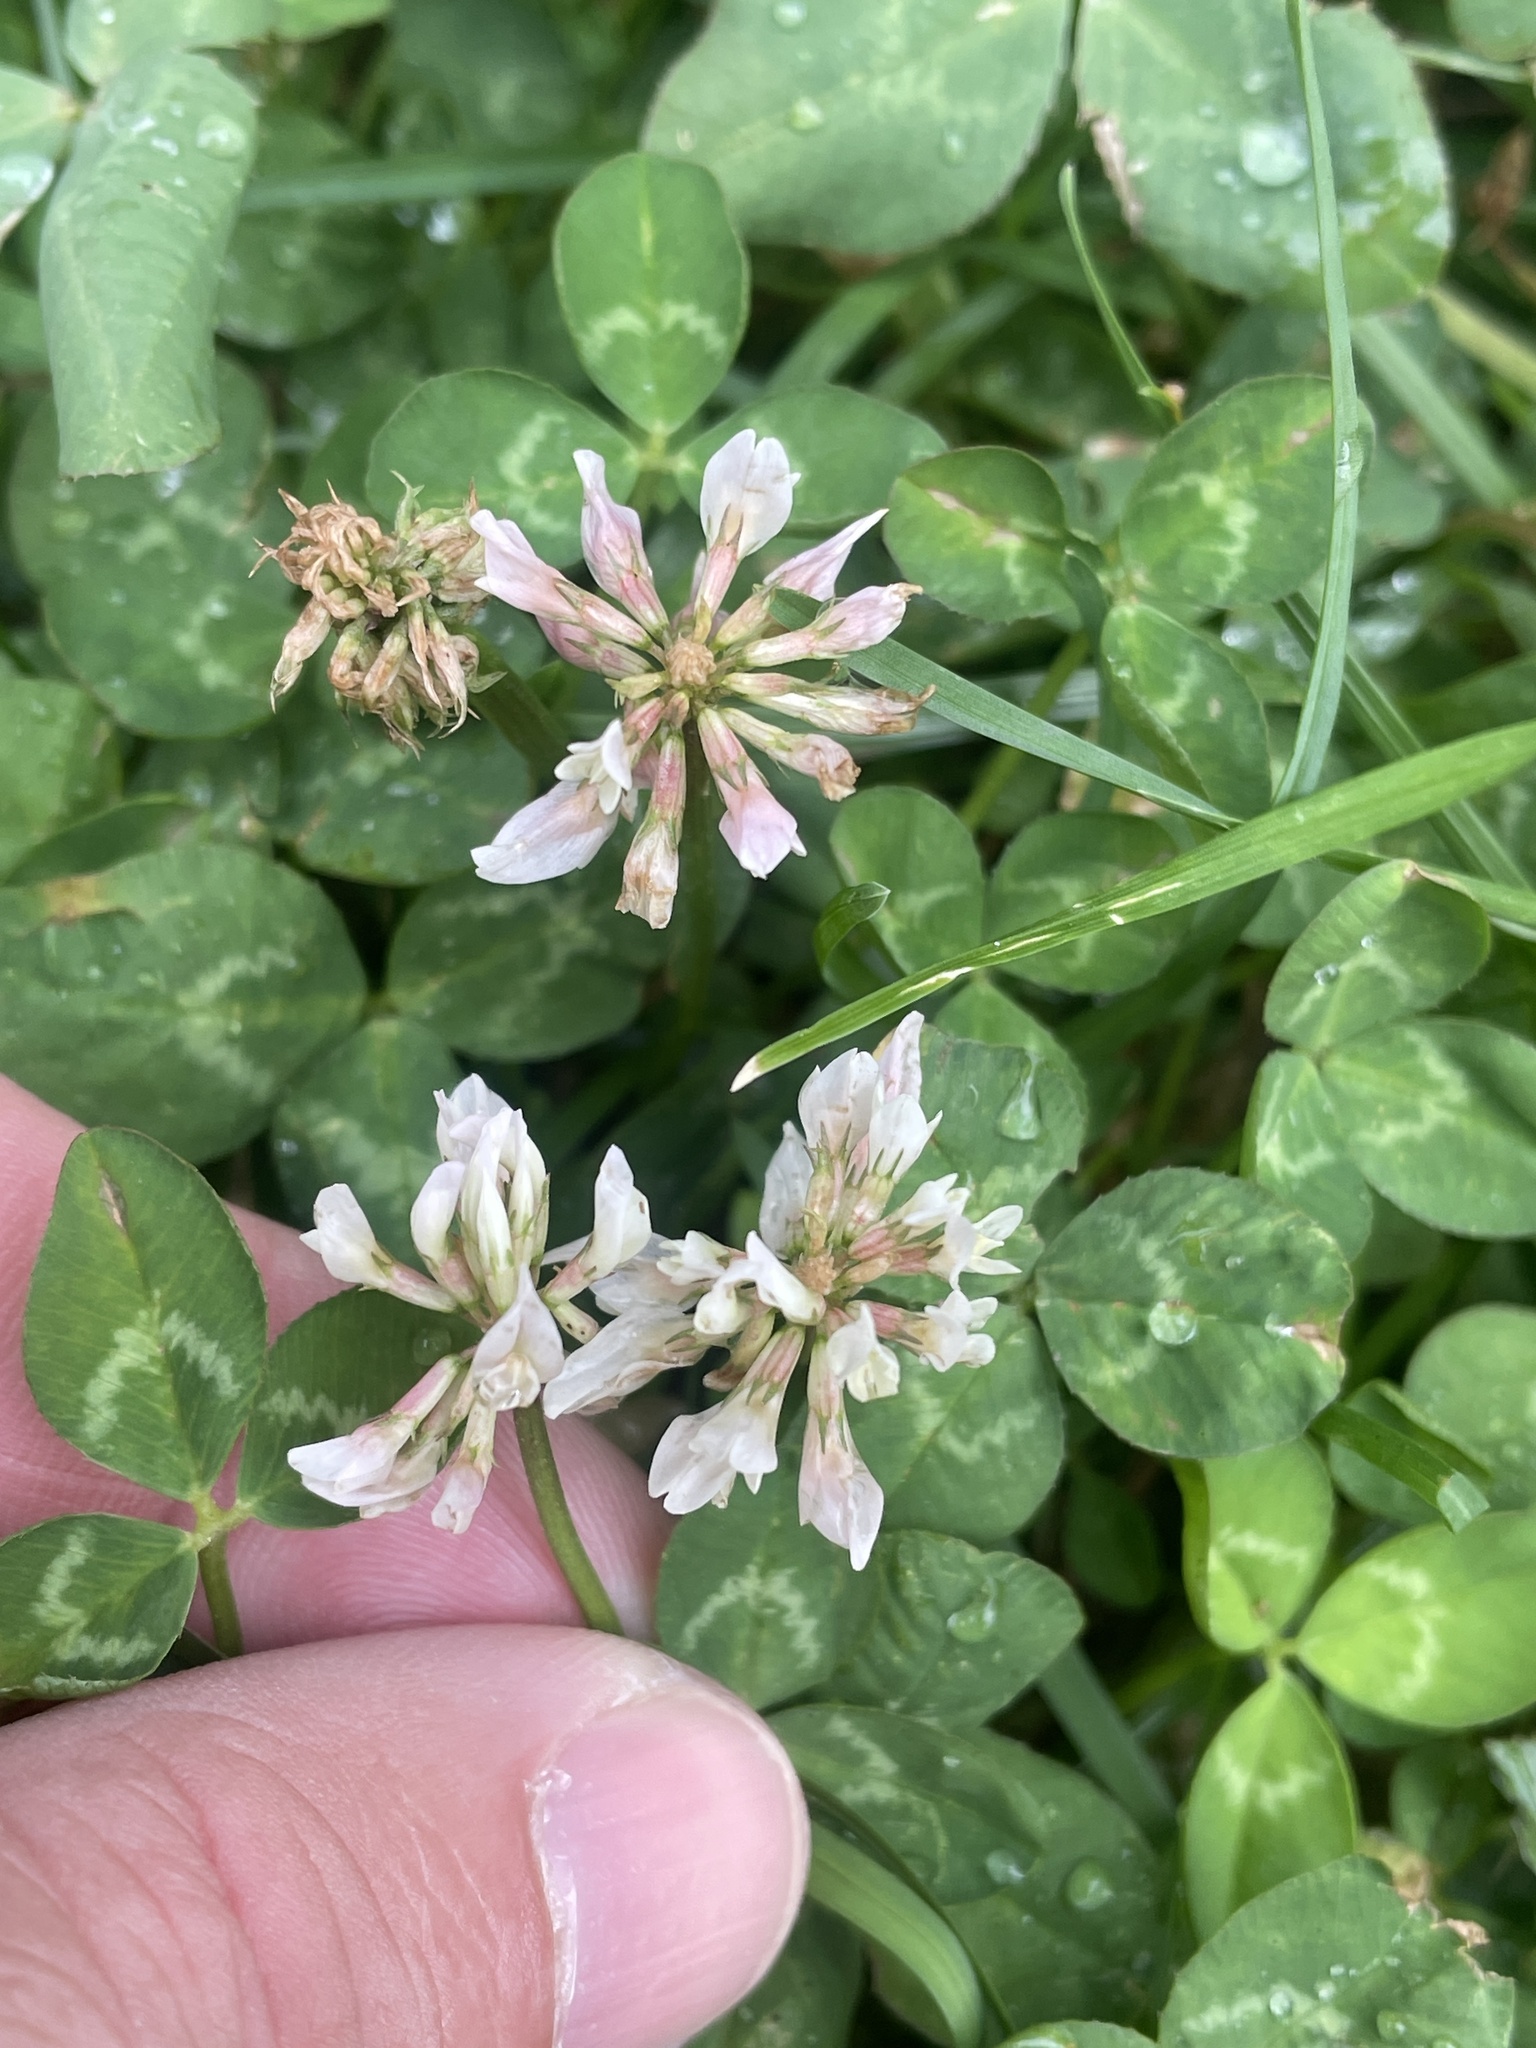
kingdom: Plantae
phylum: Tracheophyta
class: Magnoliopsida
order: Fabales
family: Fabaceae
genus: Trifolium
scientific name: Trifolium repens
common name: White clover
